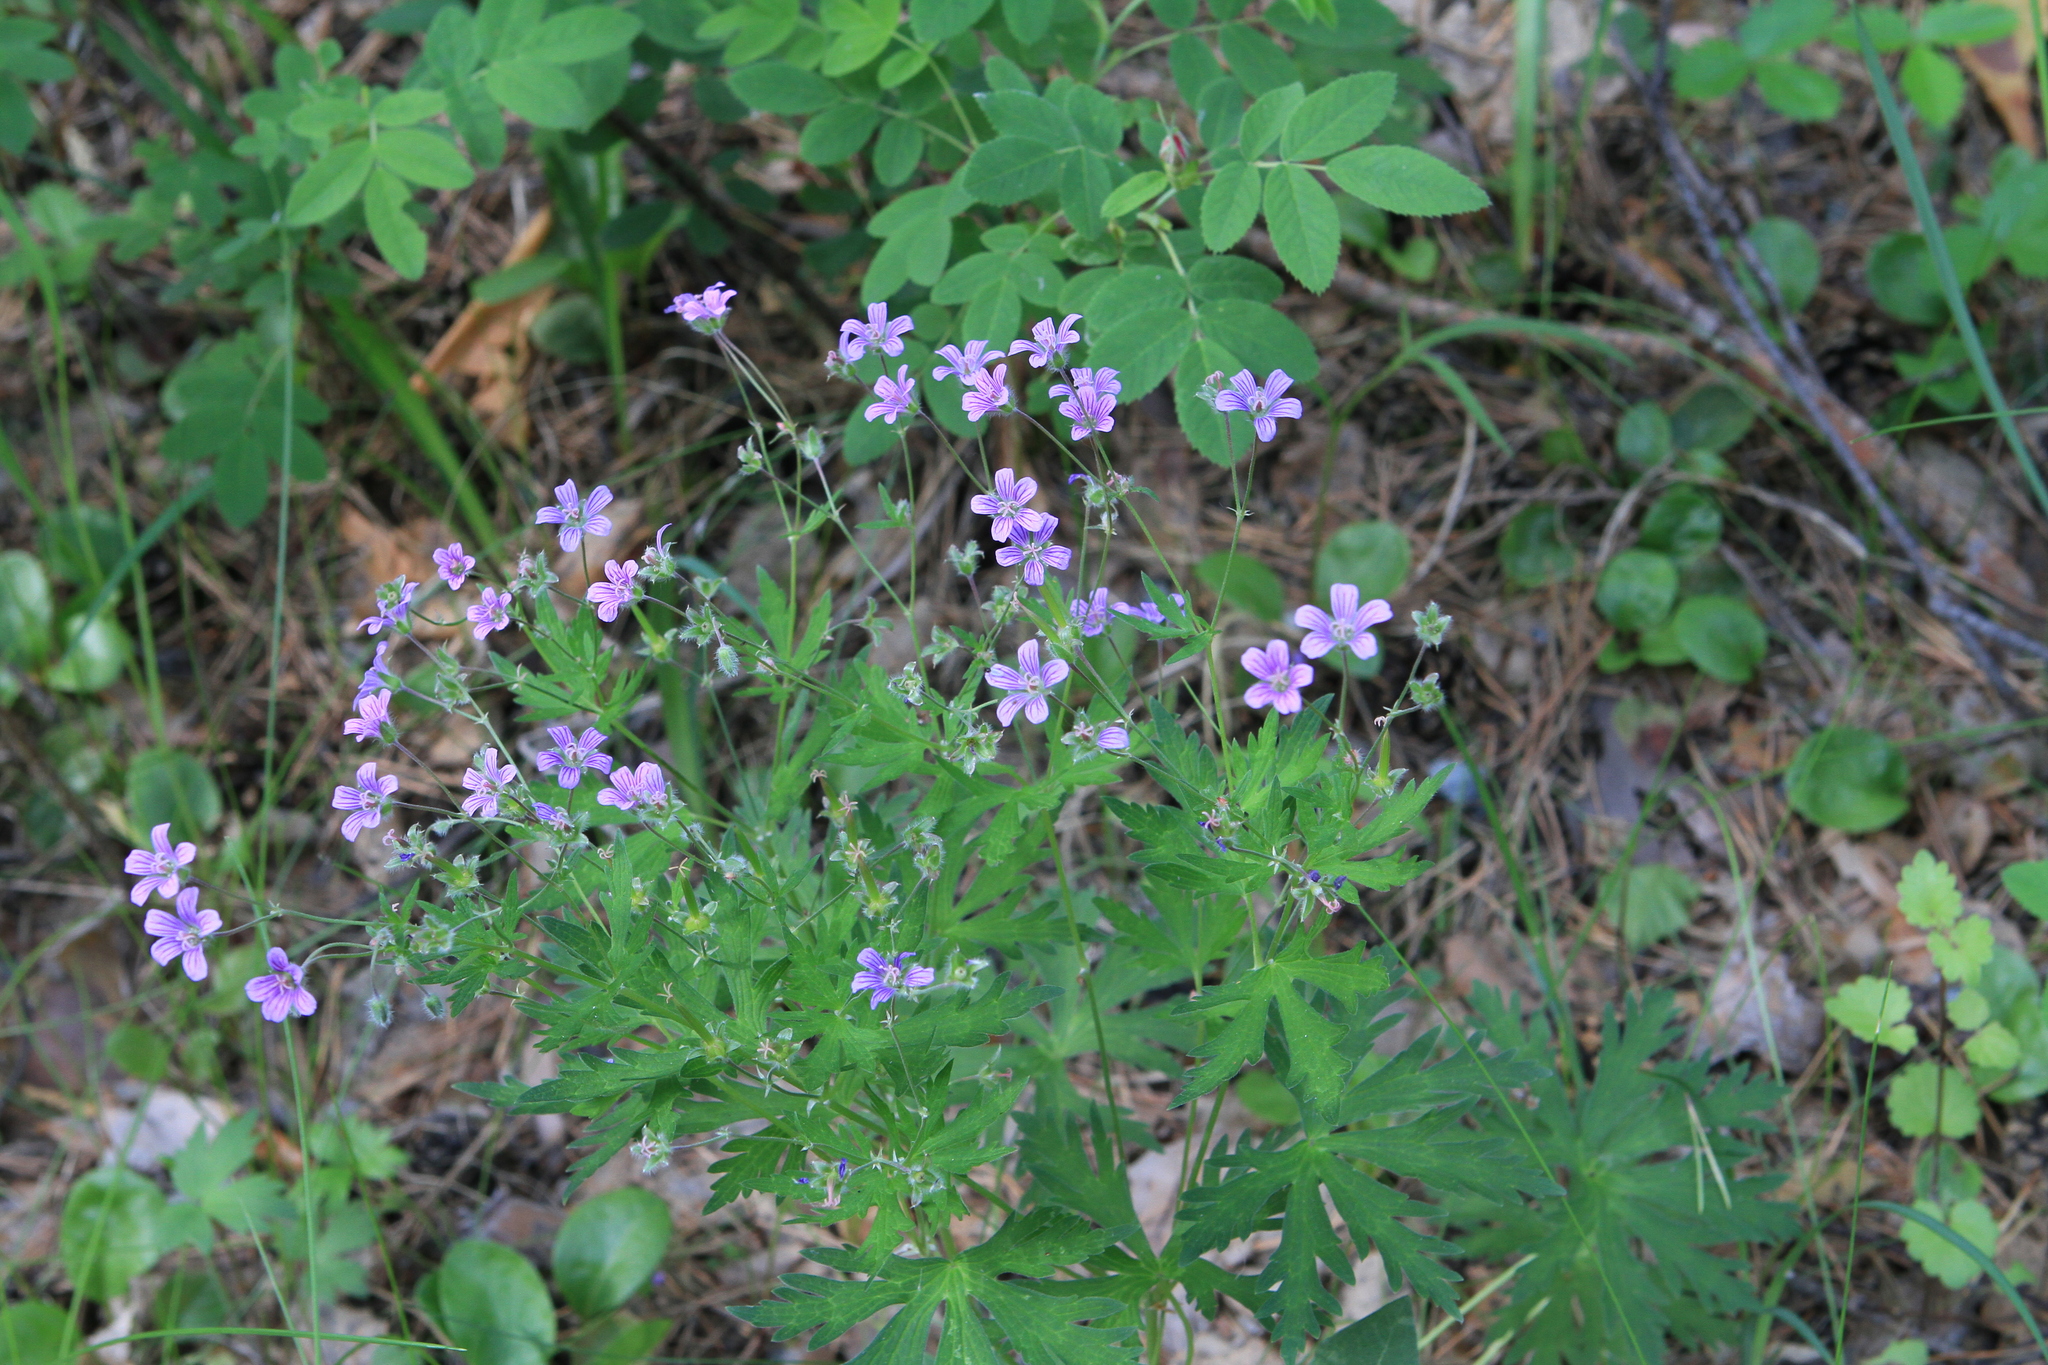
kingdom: Plantae
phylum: Tracheophyta
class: Magnoliopsida
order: Geraniales
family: Geraniaceae
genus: Geranium
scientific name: Geranium pseudosibiricum
